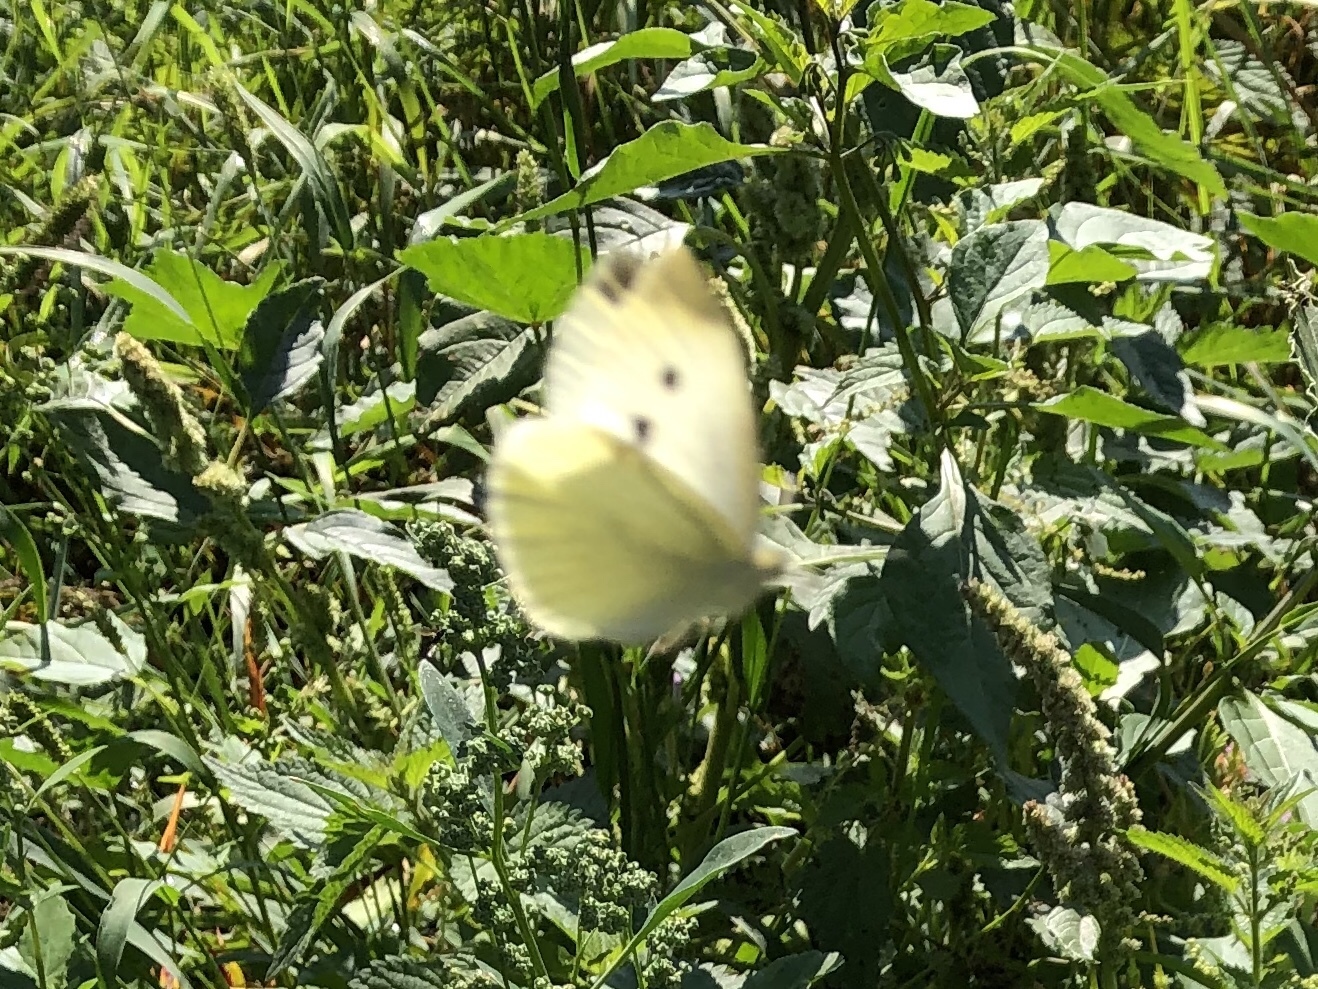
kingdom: Animalia
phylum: Arthropoda
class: Insecta
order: Lepidoptera
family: Pieridae
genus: Pieris
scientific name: Pieris rapae
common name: Small white
